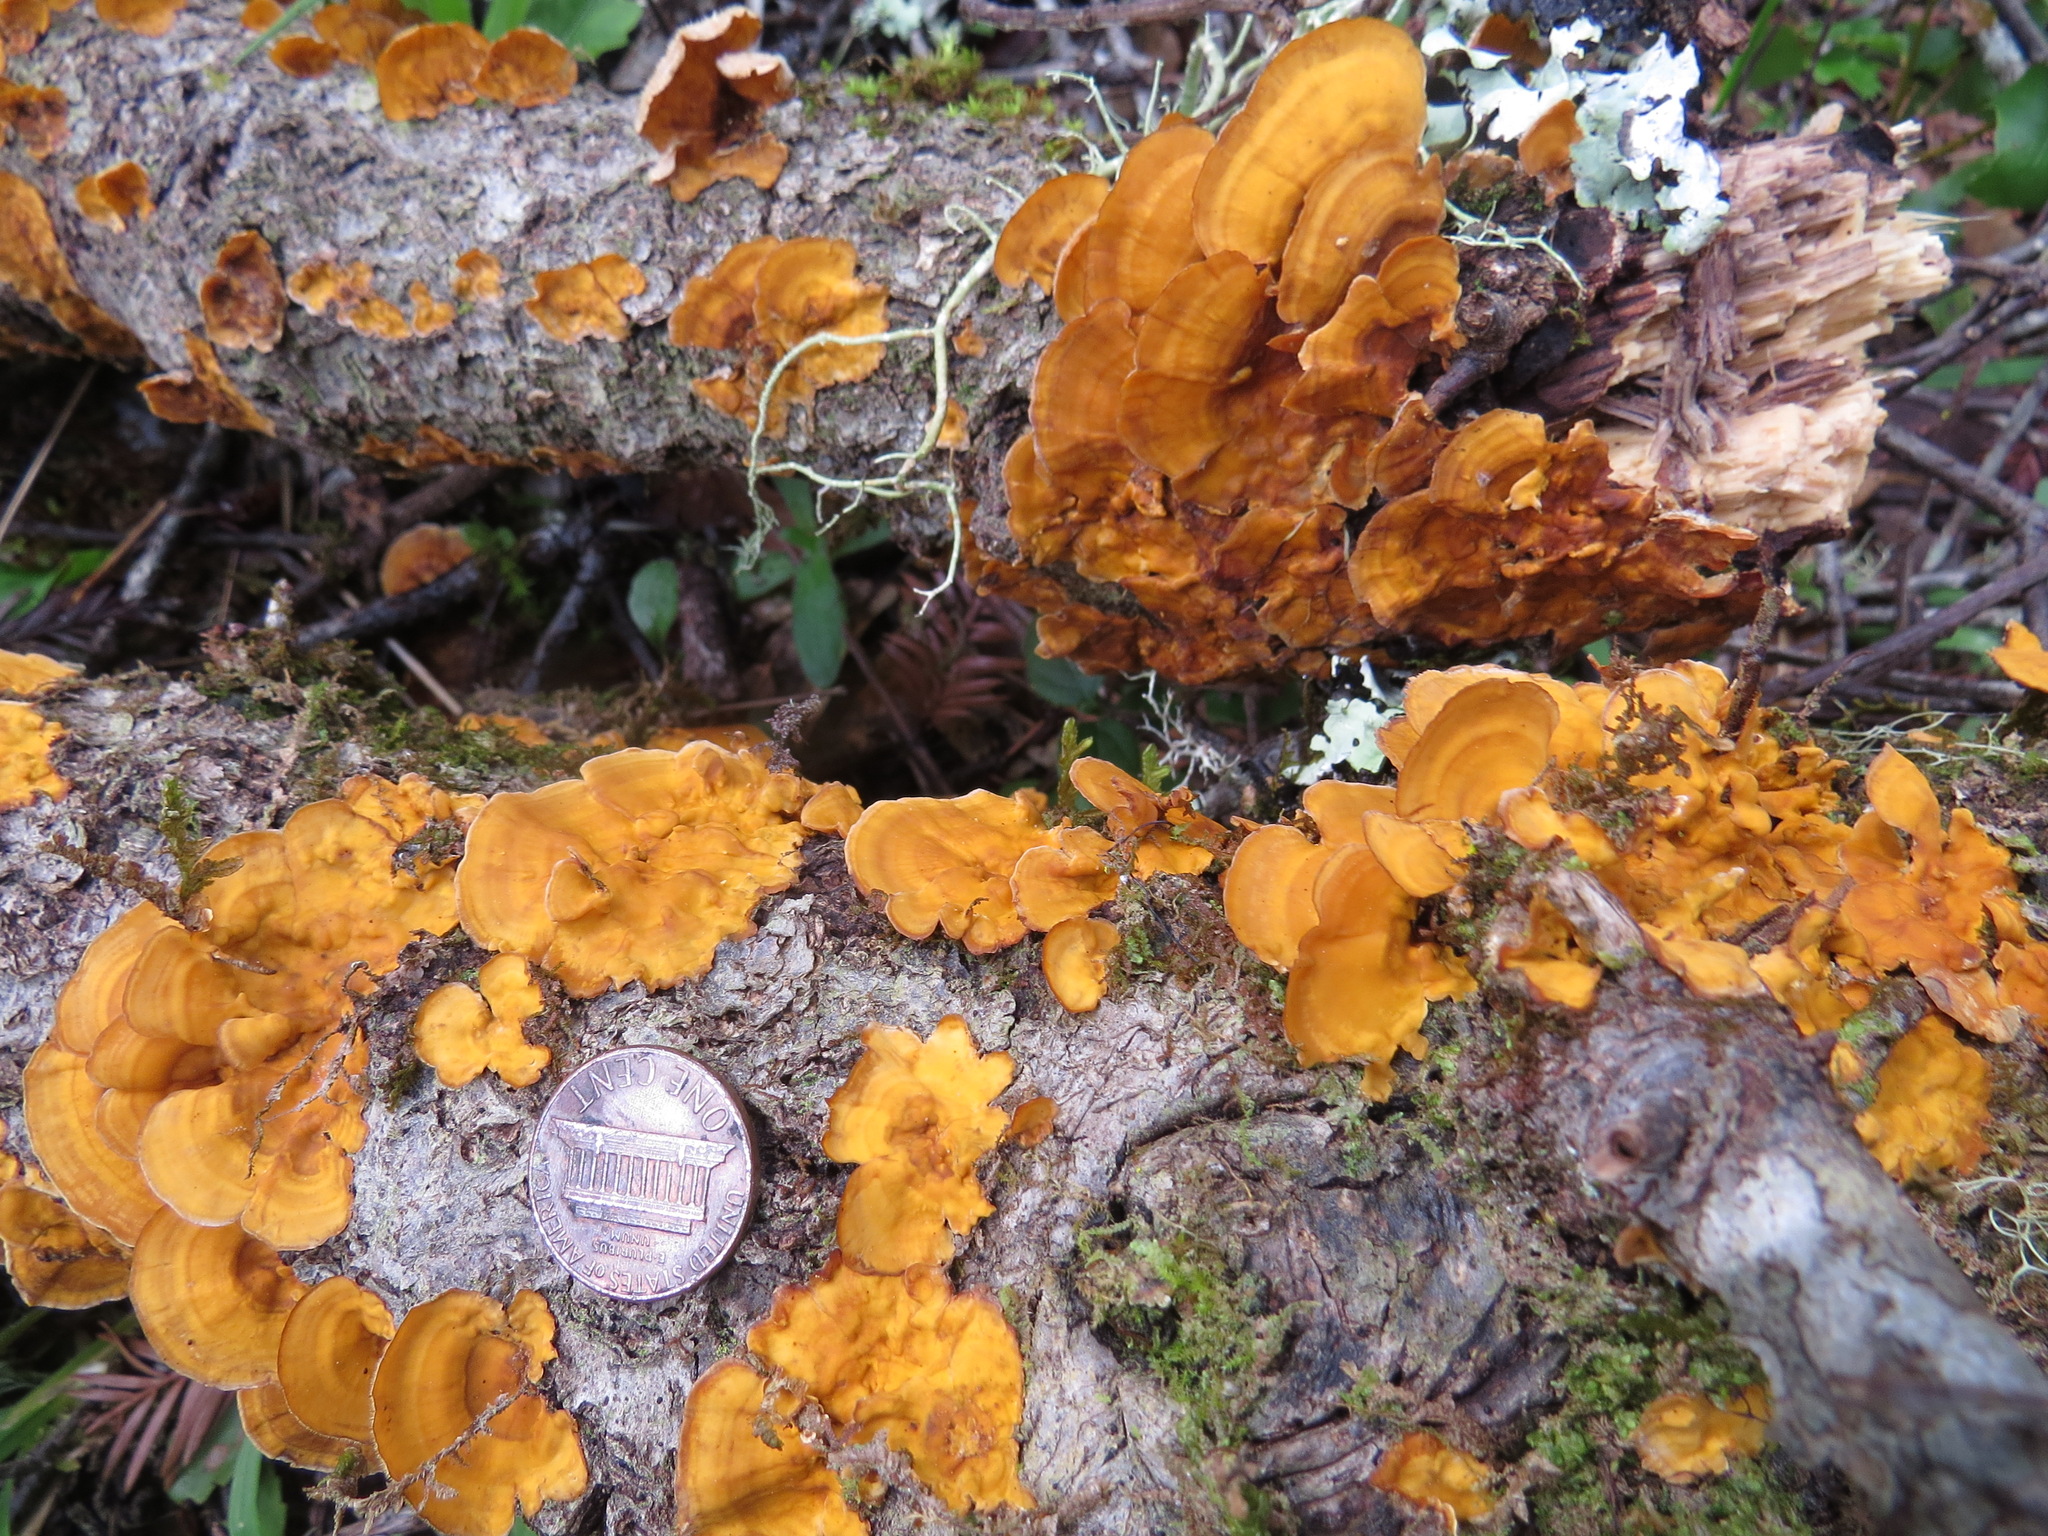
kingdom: Fungi
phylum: Basidiomycota
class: Agaricomycetes
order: Russulales
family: Stereaceae
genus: Stereum
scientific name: Stereum hirsutum
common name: Hairy curtain crust
